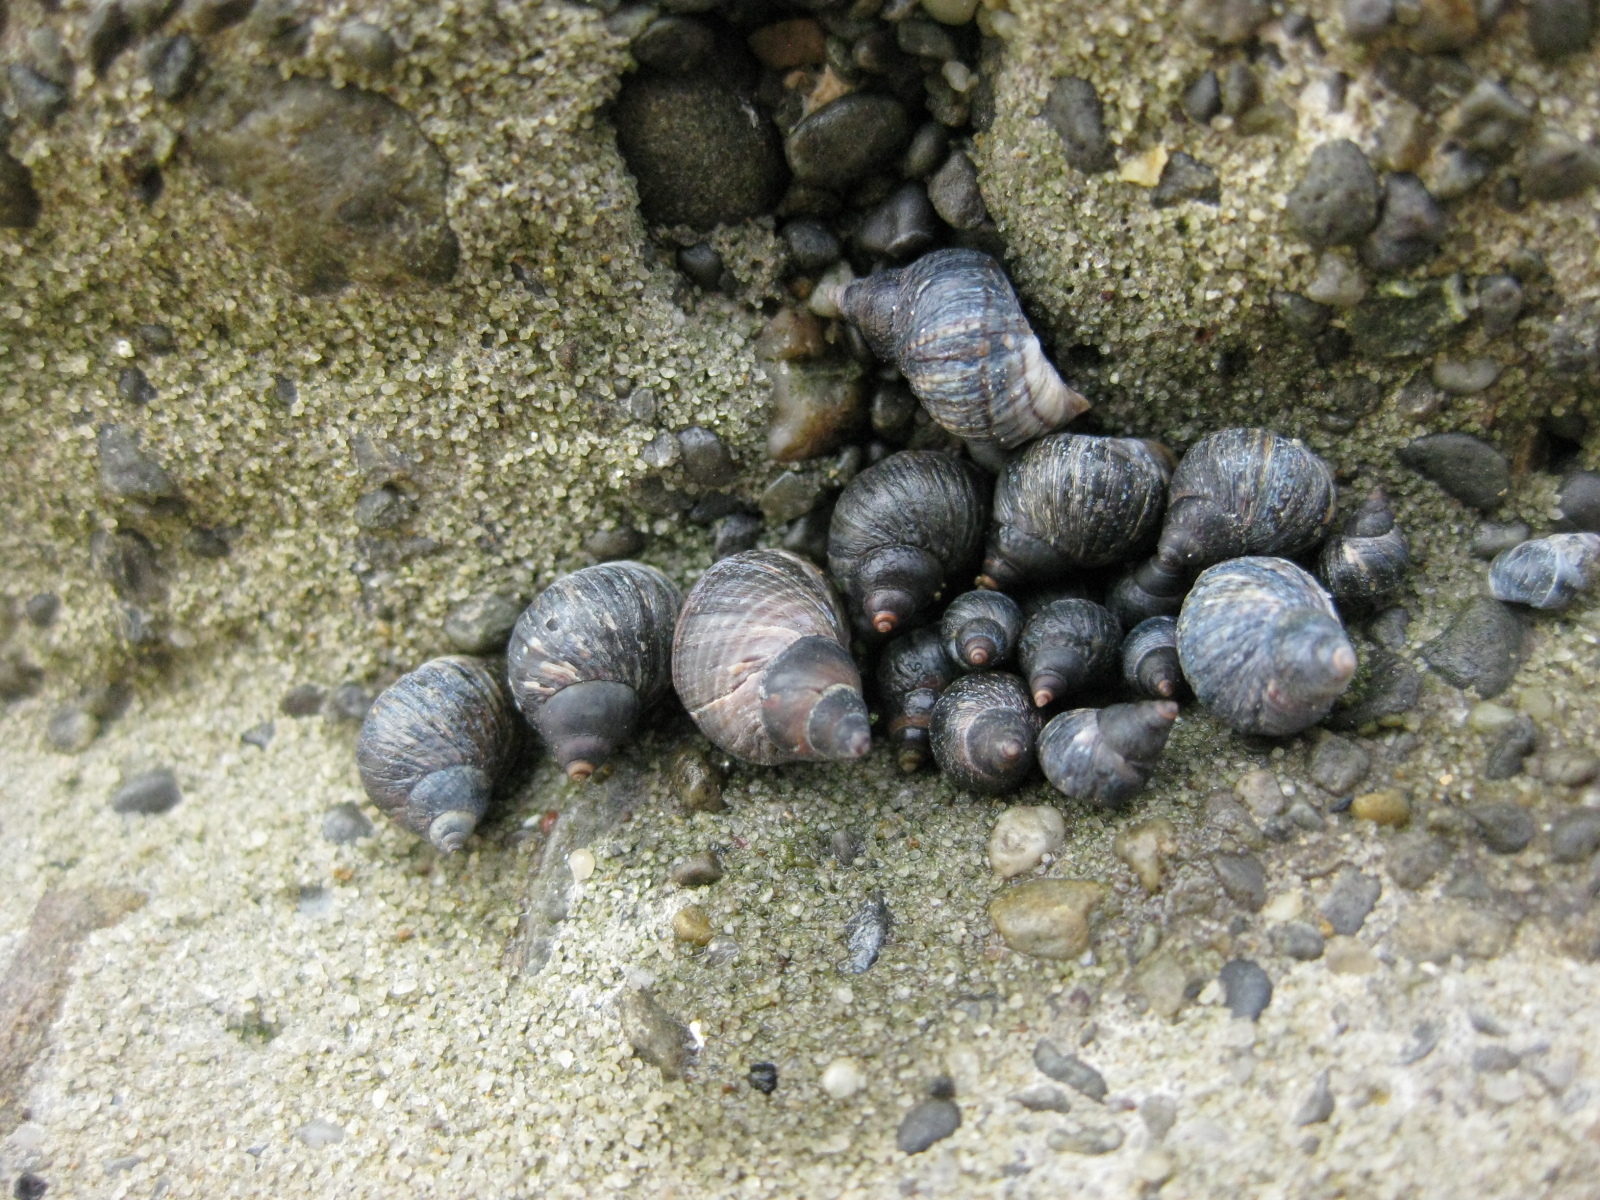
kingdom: Animalia
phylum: Mollusca
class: Gastropoda
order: Littorinimorpha
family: Littorinidae
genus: Austrolittorina
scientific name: Austrolittorina cincta
